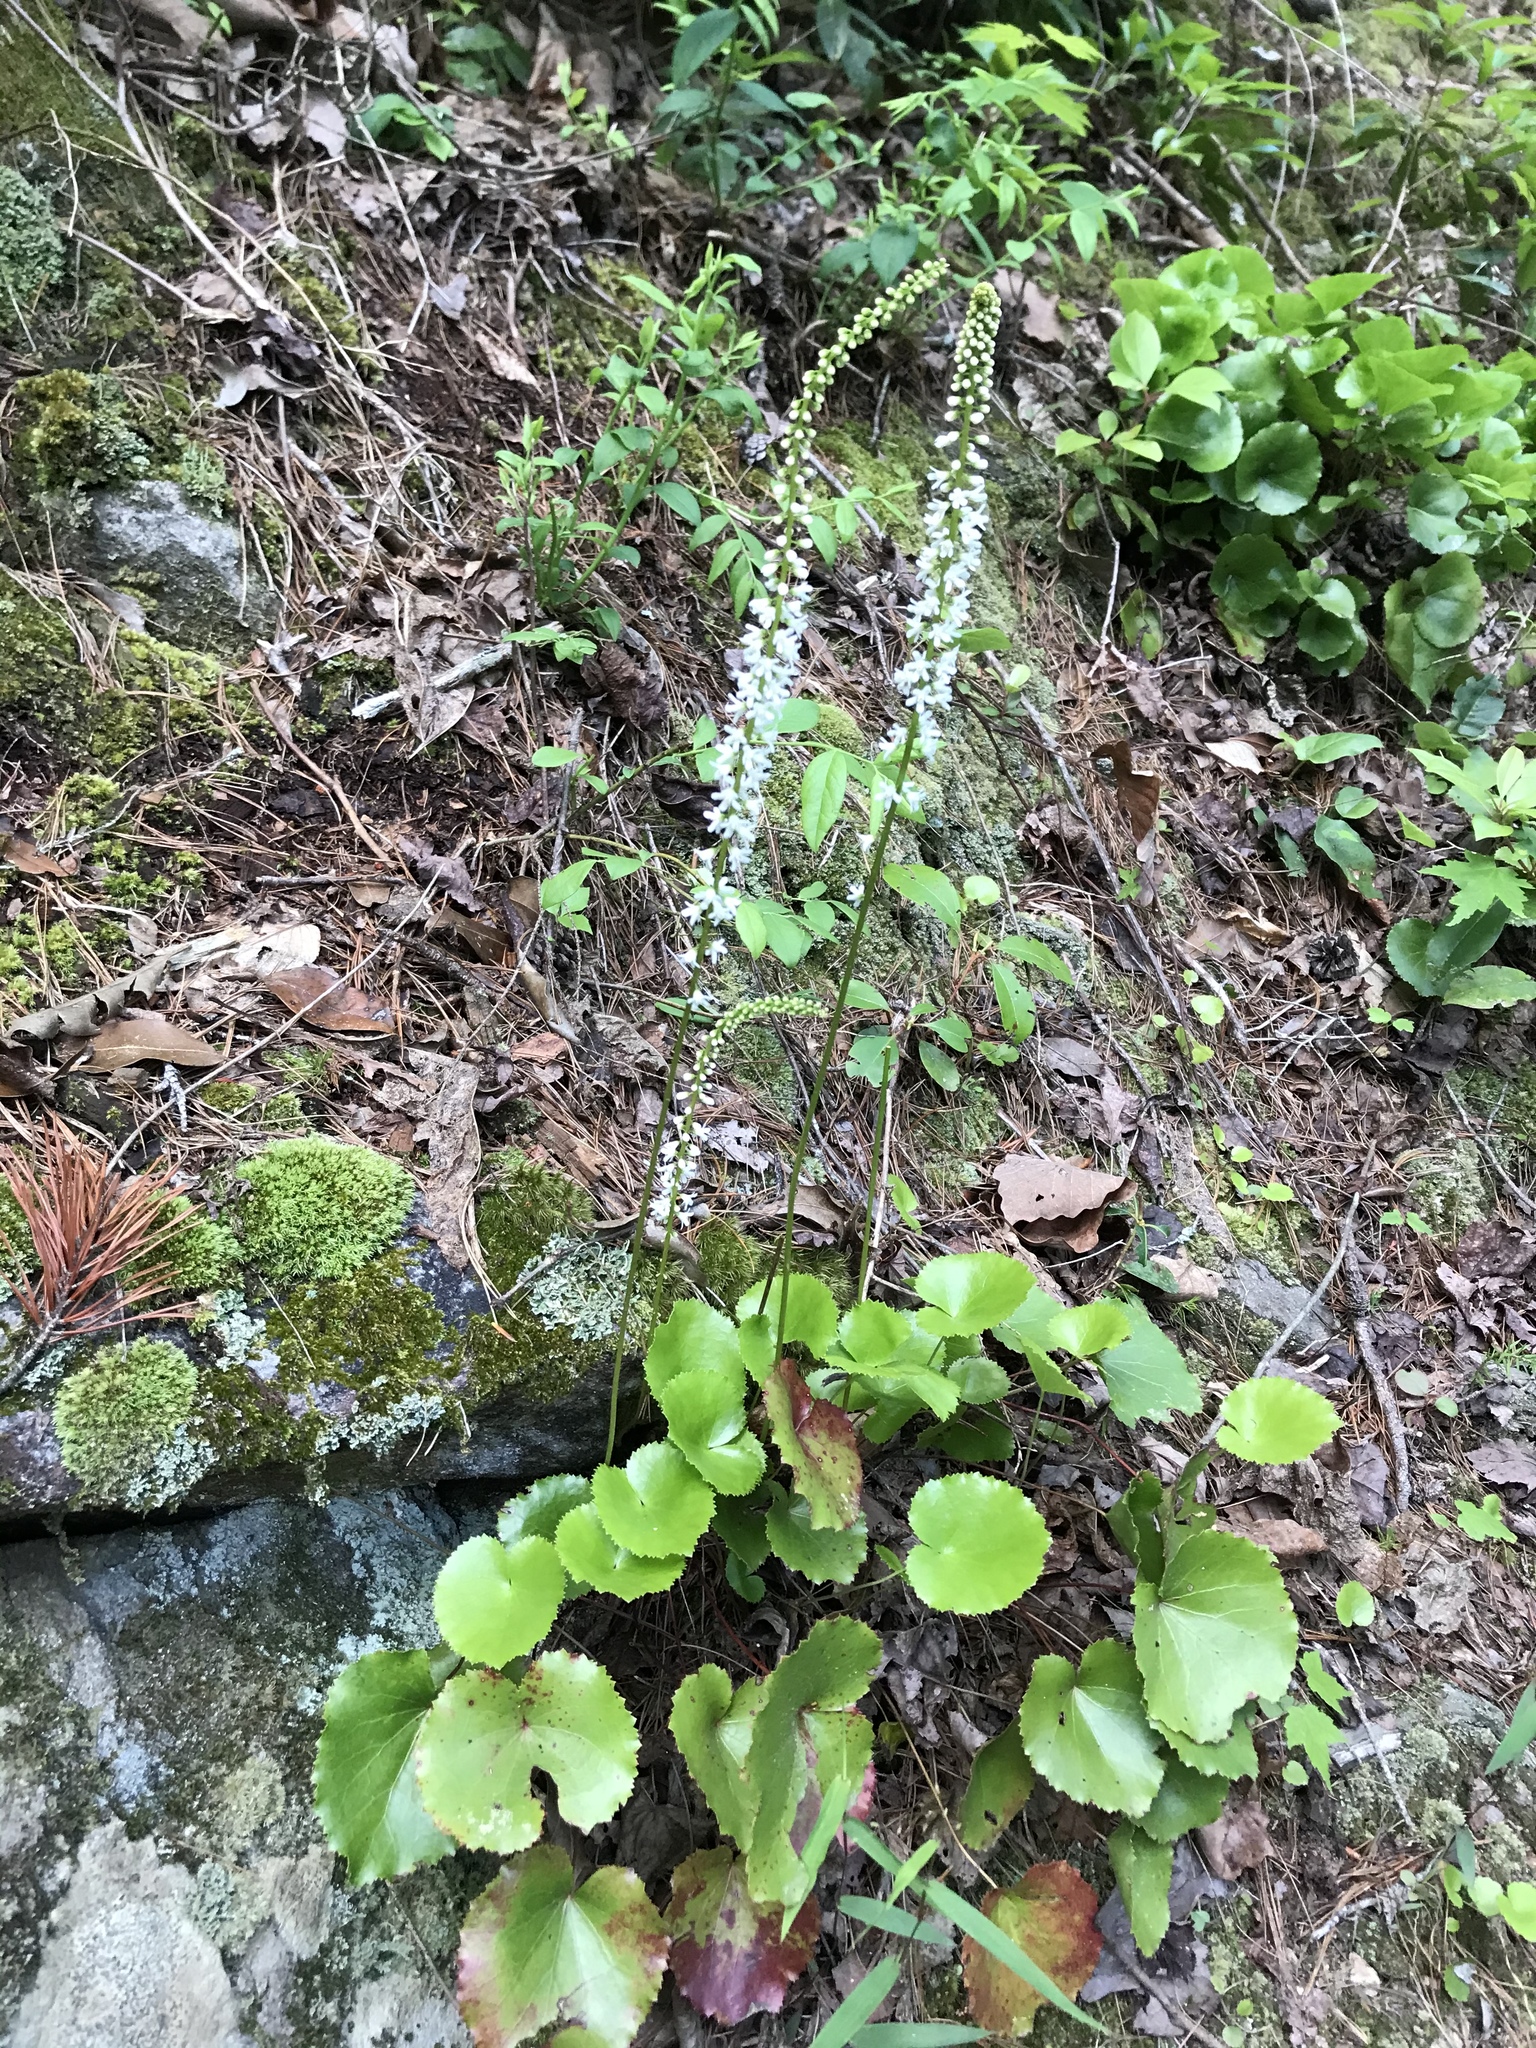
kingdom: Plantae
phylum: Tracheophyta
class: Magnoliopsida
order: Ericales
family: Diapensiaceae
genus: Galax
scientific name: Galax urceolata
